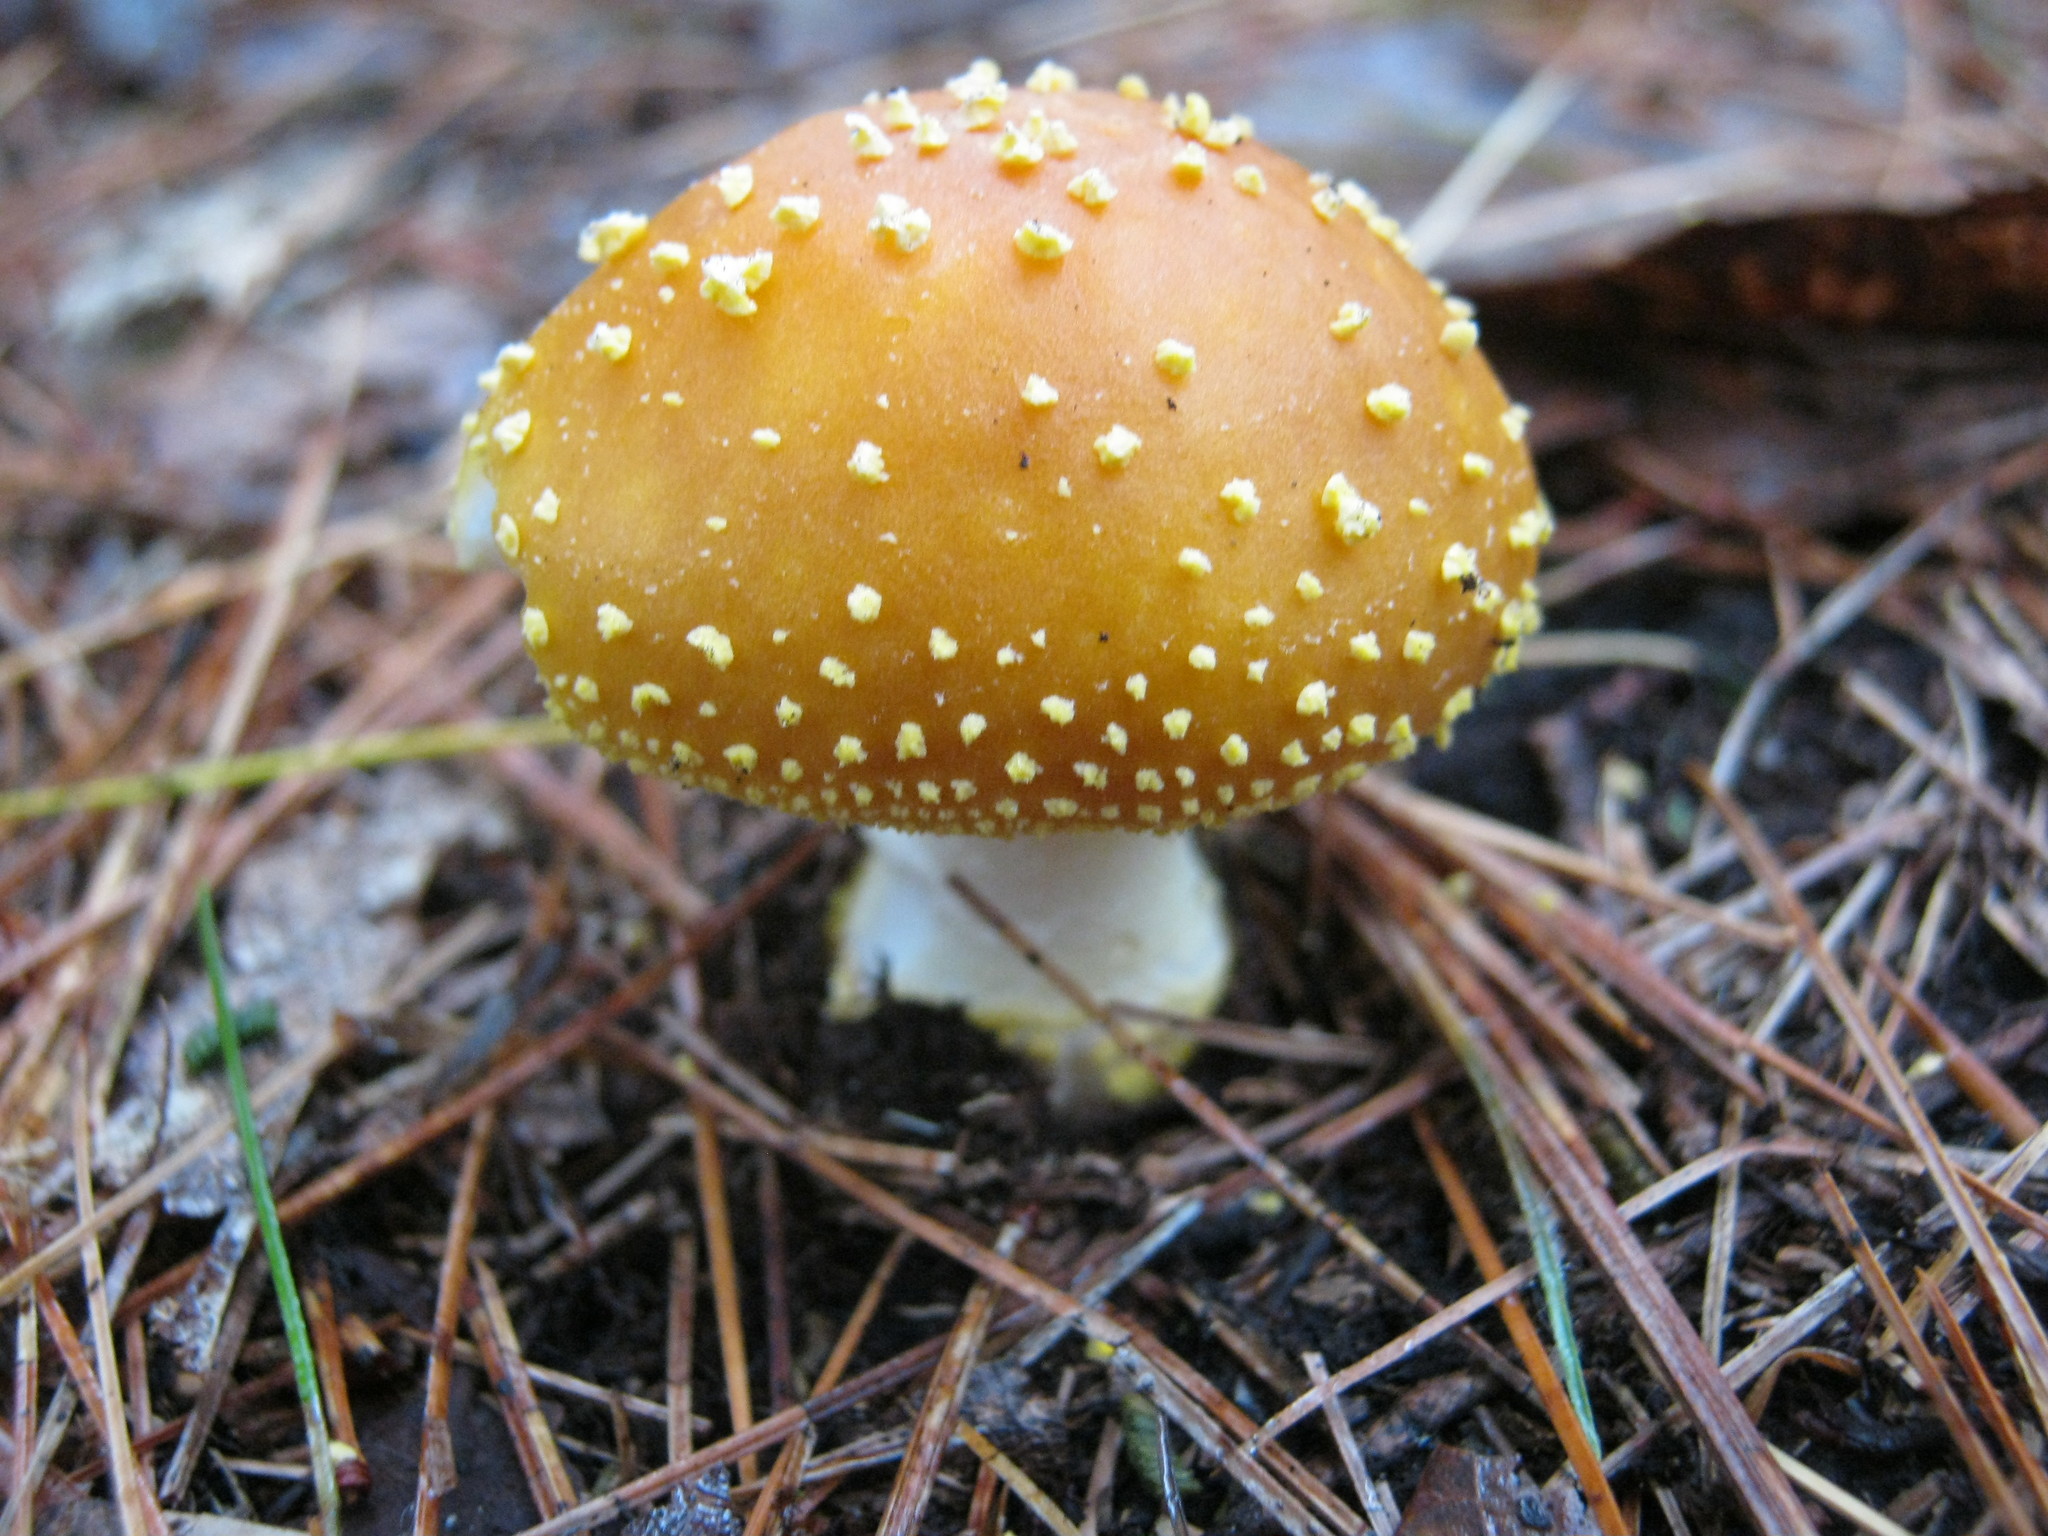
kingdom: Fungi
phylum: Basidiomycota
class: Agaricomycetes
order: Agaricales
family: Amanitaceae
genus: Amanita
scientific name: Amanita flavoconia
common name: Yellow patches
